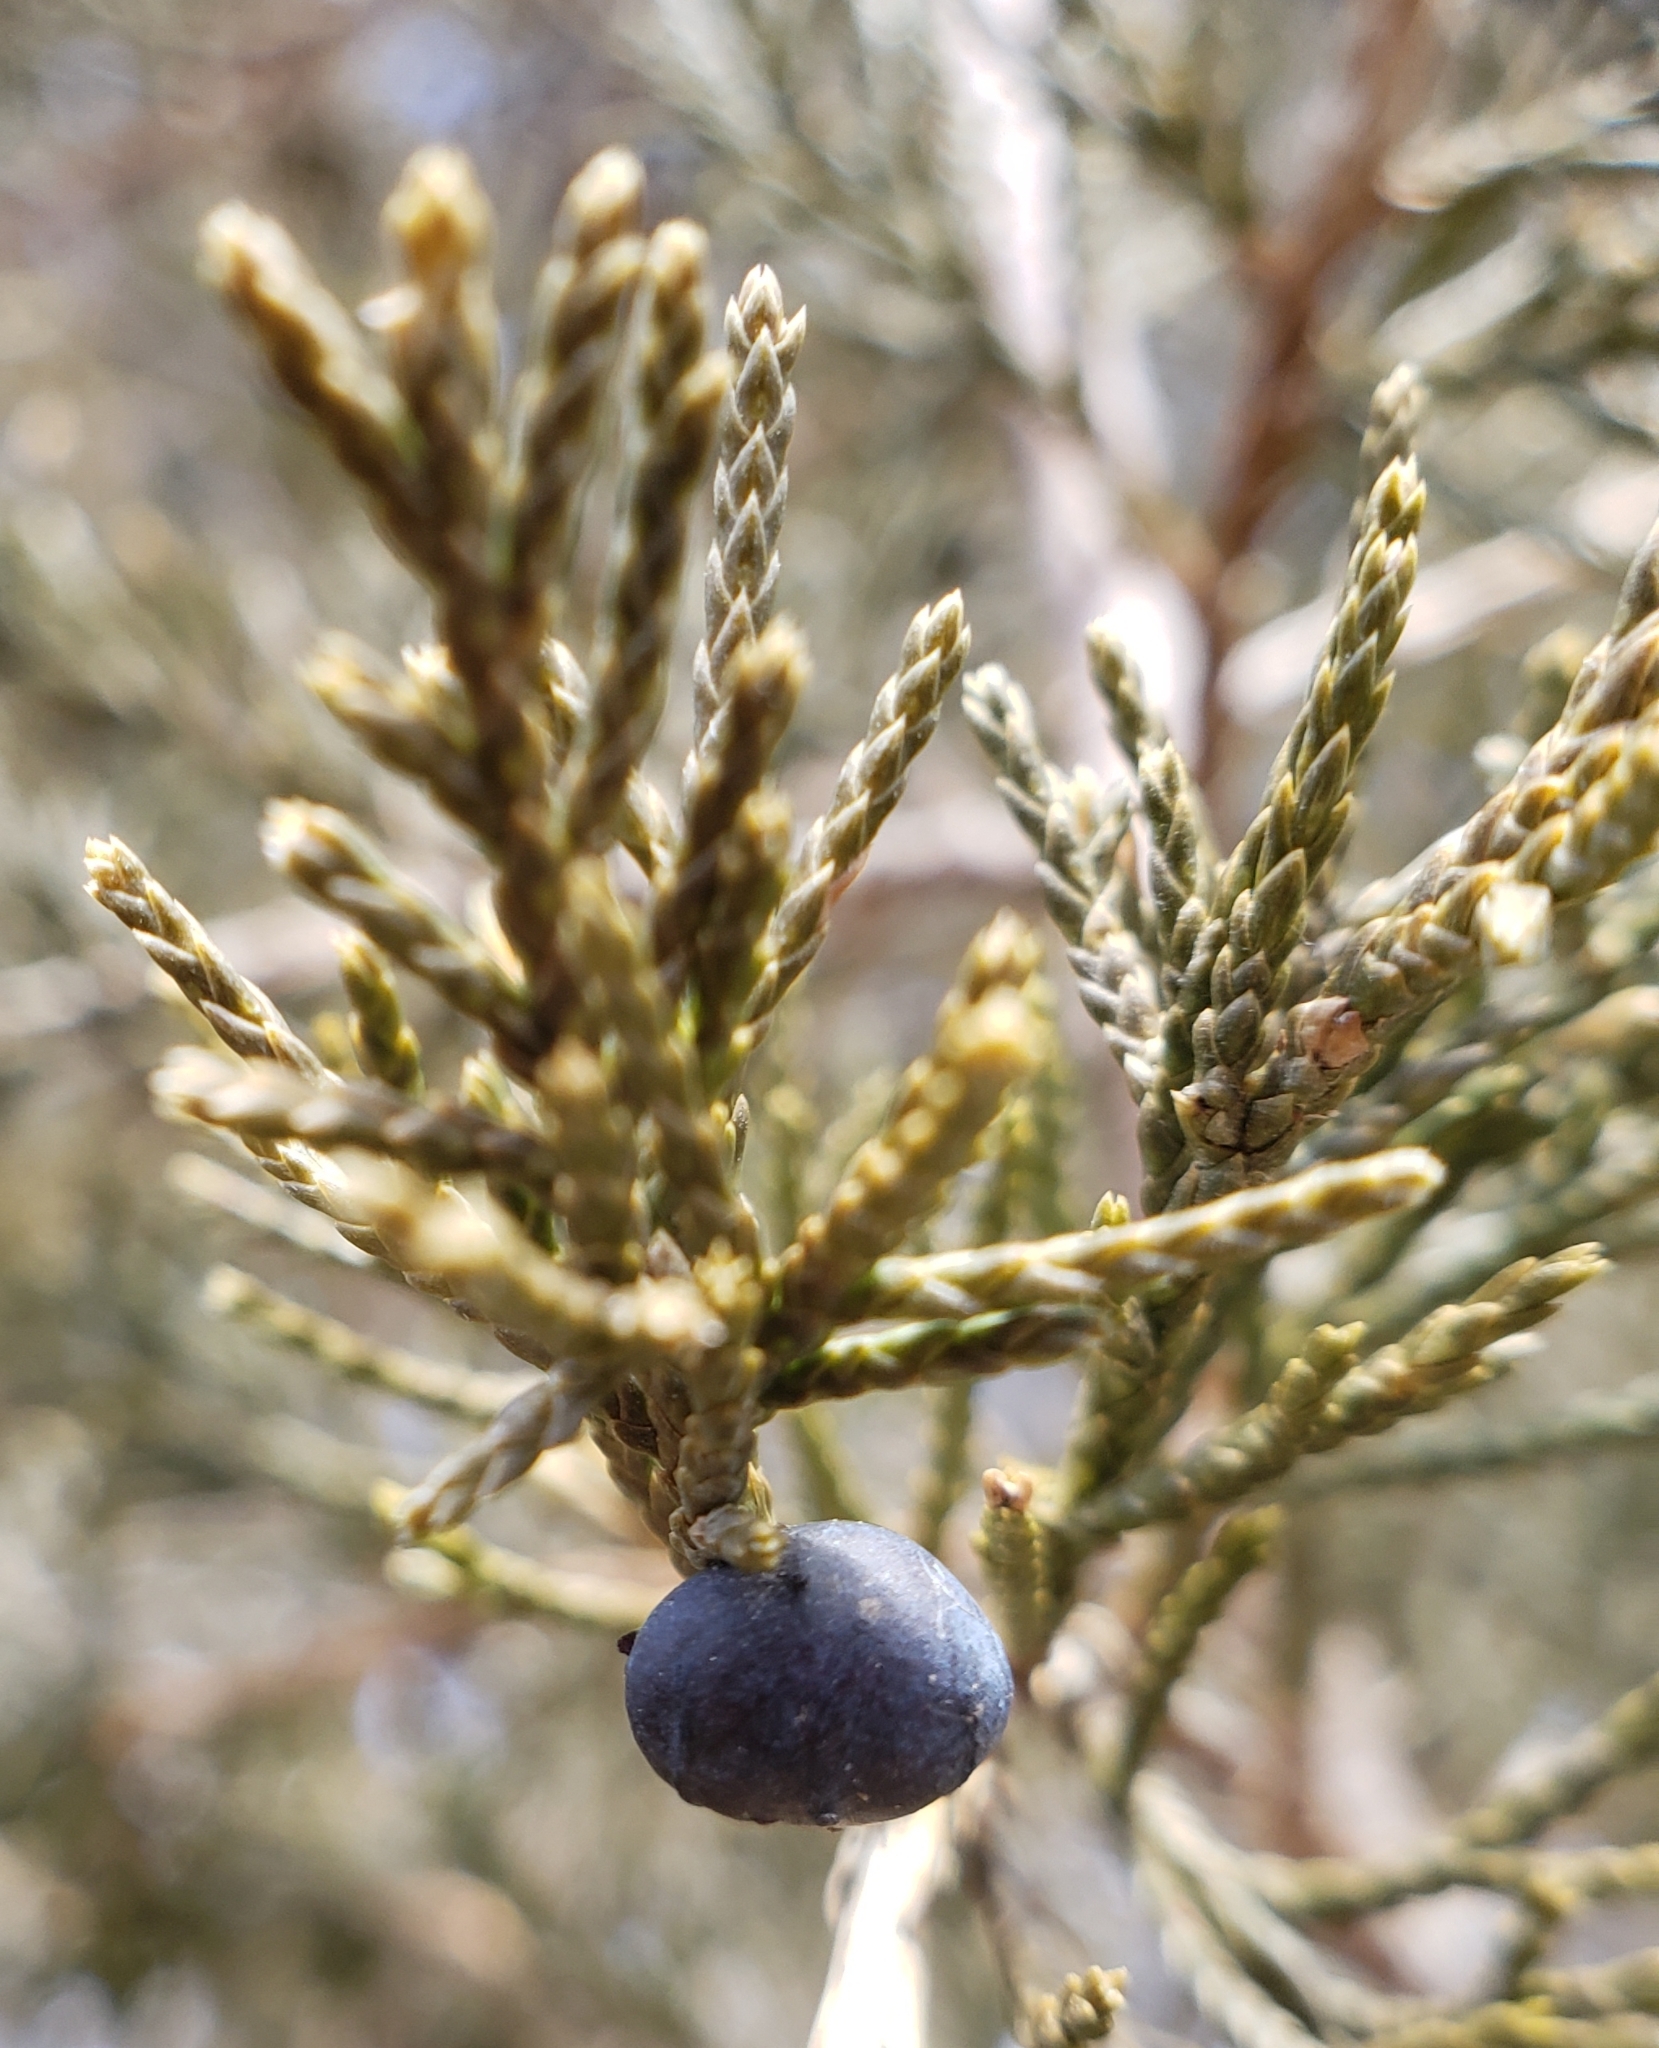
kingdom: Plantae
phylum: Tracheophyta
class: Pinopsida
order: Pinales
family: Cupressaceae
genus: Juniperus
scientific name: Juniperus virginiana
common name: Red juniper
